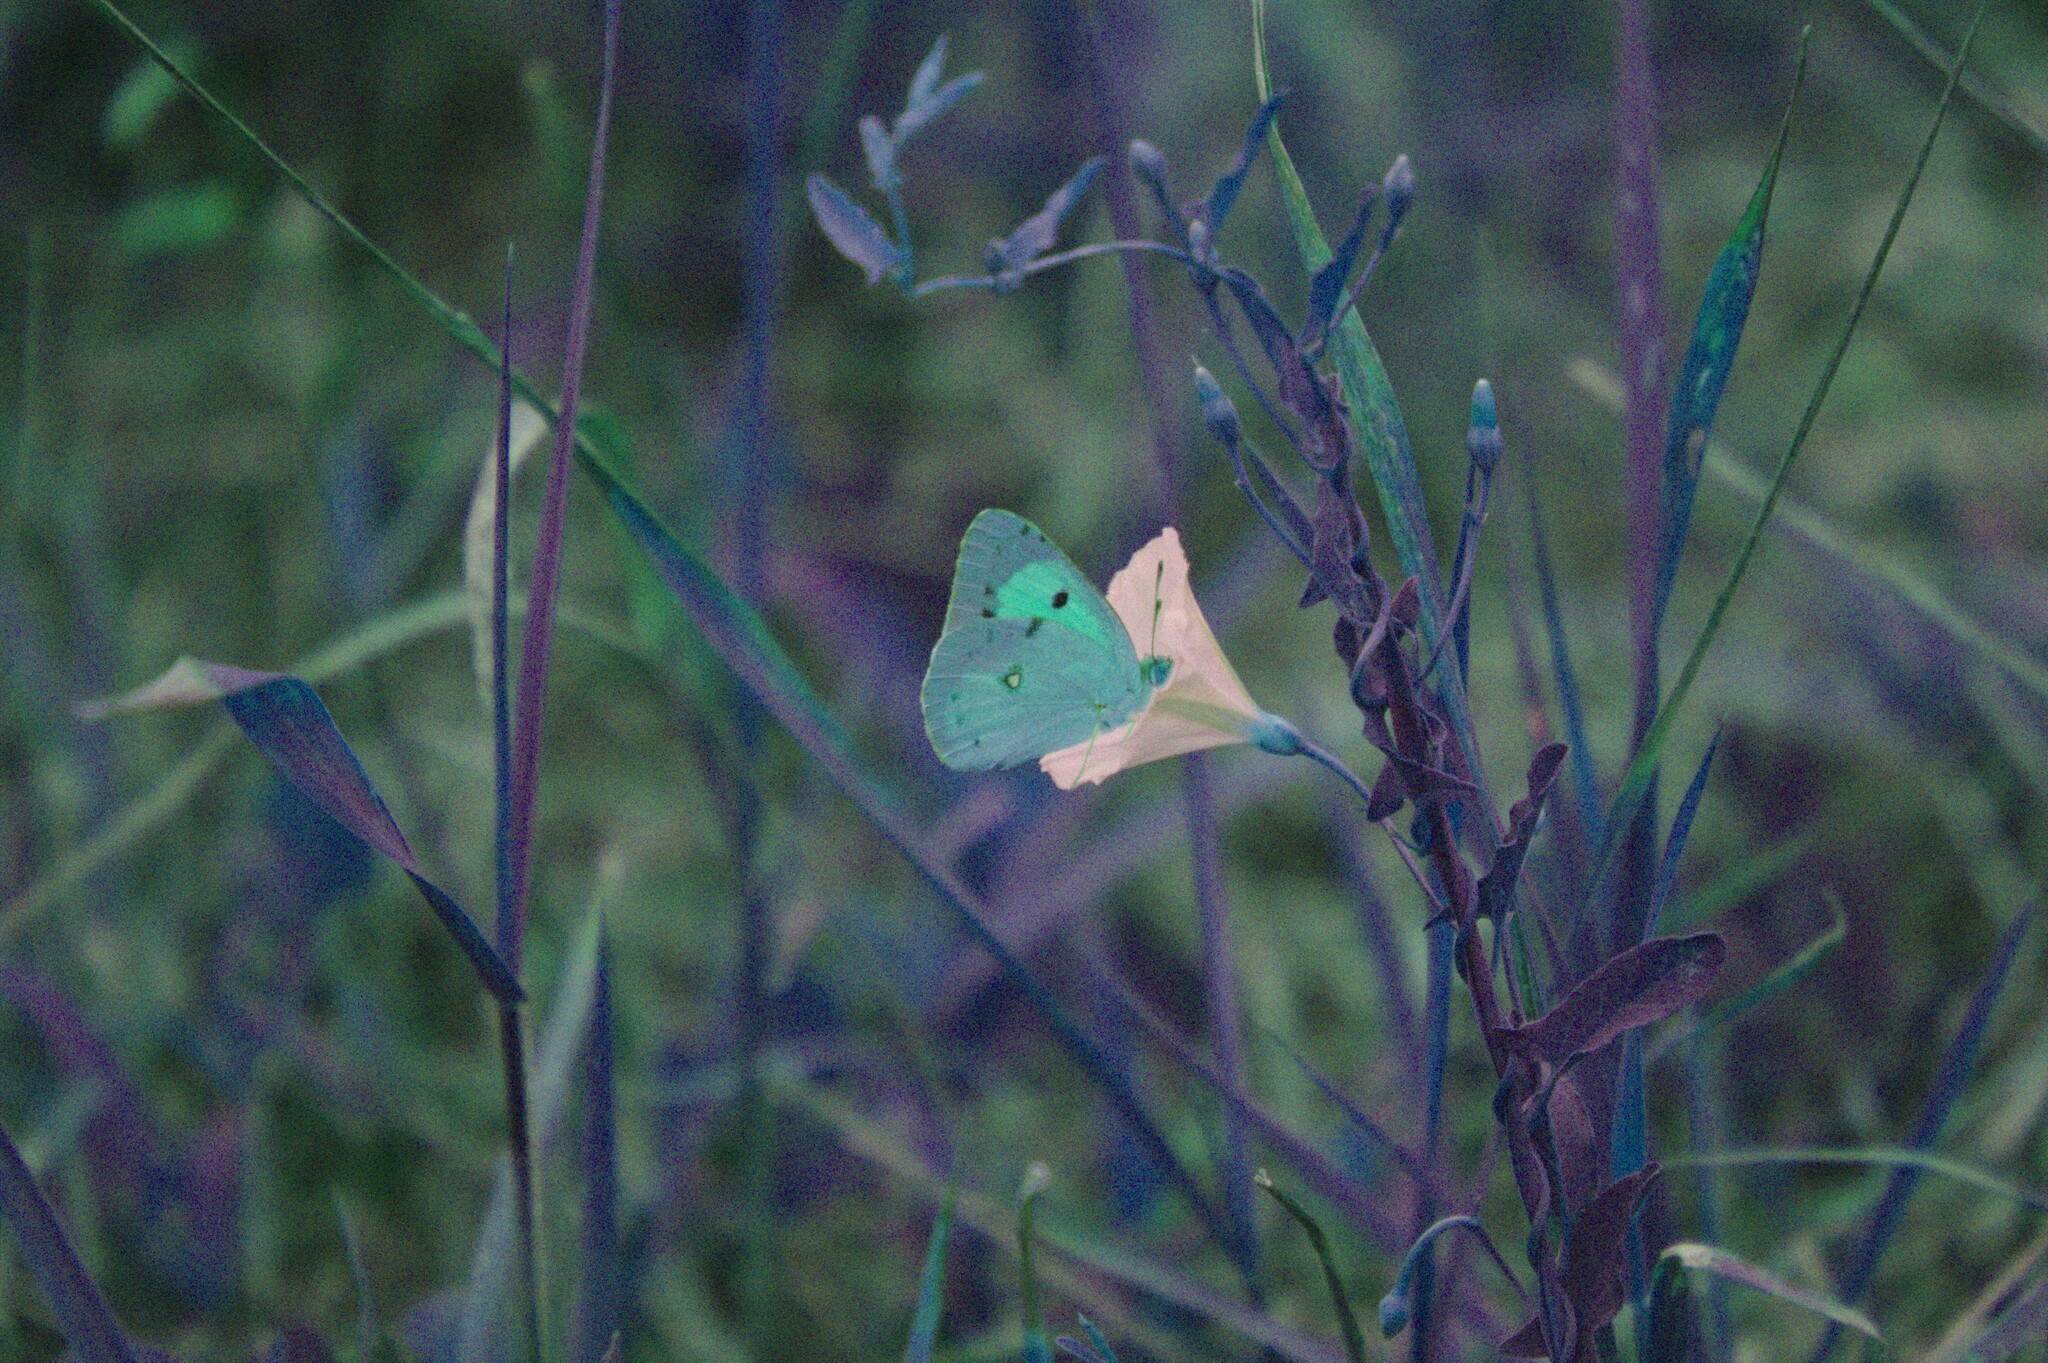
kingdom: Plantae
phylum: Tracheophyta
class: Magnoliopsida
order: Solanales
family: Convolvulaceae
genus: Convolvulus
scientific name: Convolvulus arvensis
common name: Field bindweed
